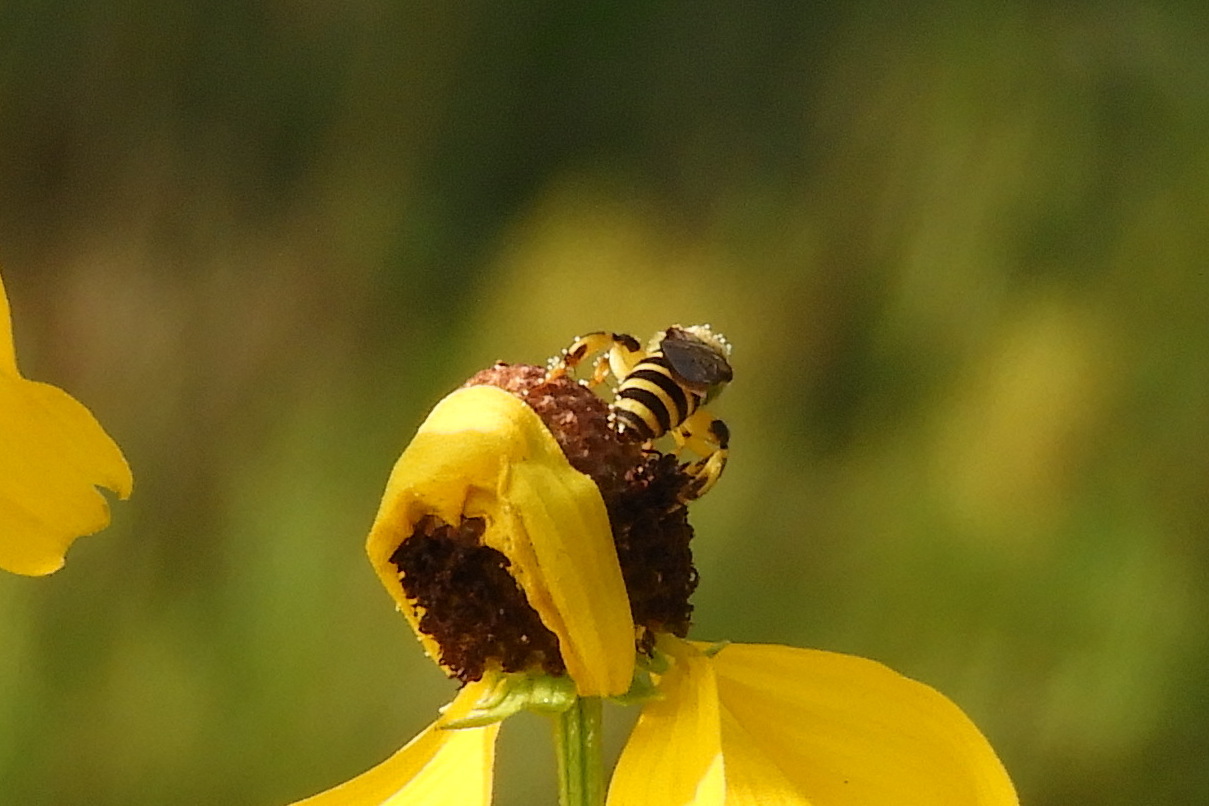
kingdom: Animalia
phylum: Arthropoda
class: Insecta
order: Hymenoptera
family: Halictidae
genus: Agapostemon
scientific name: Agapostemon splendens
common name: Brown-winged striped sweat bee
